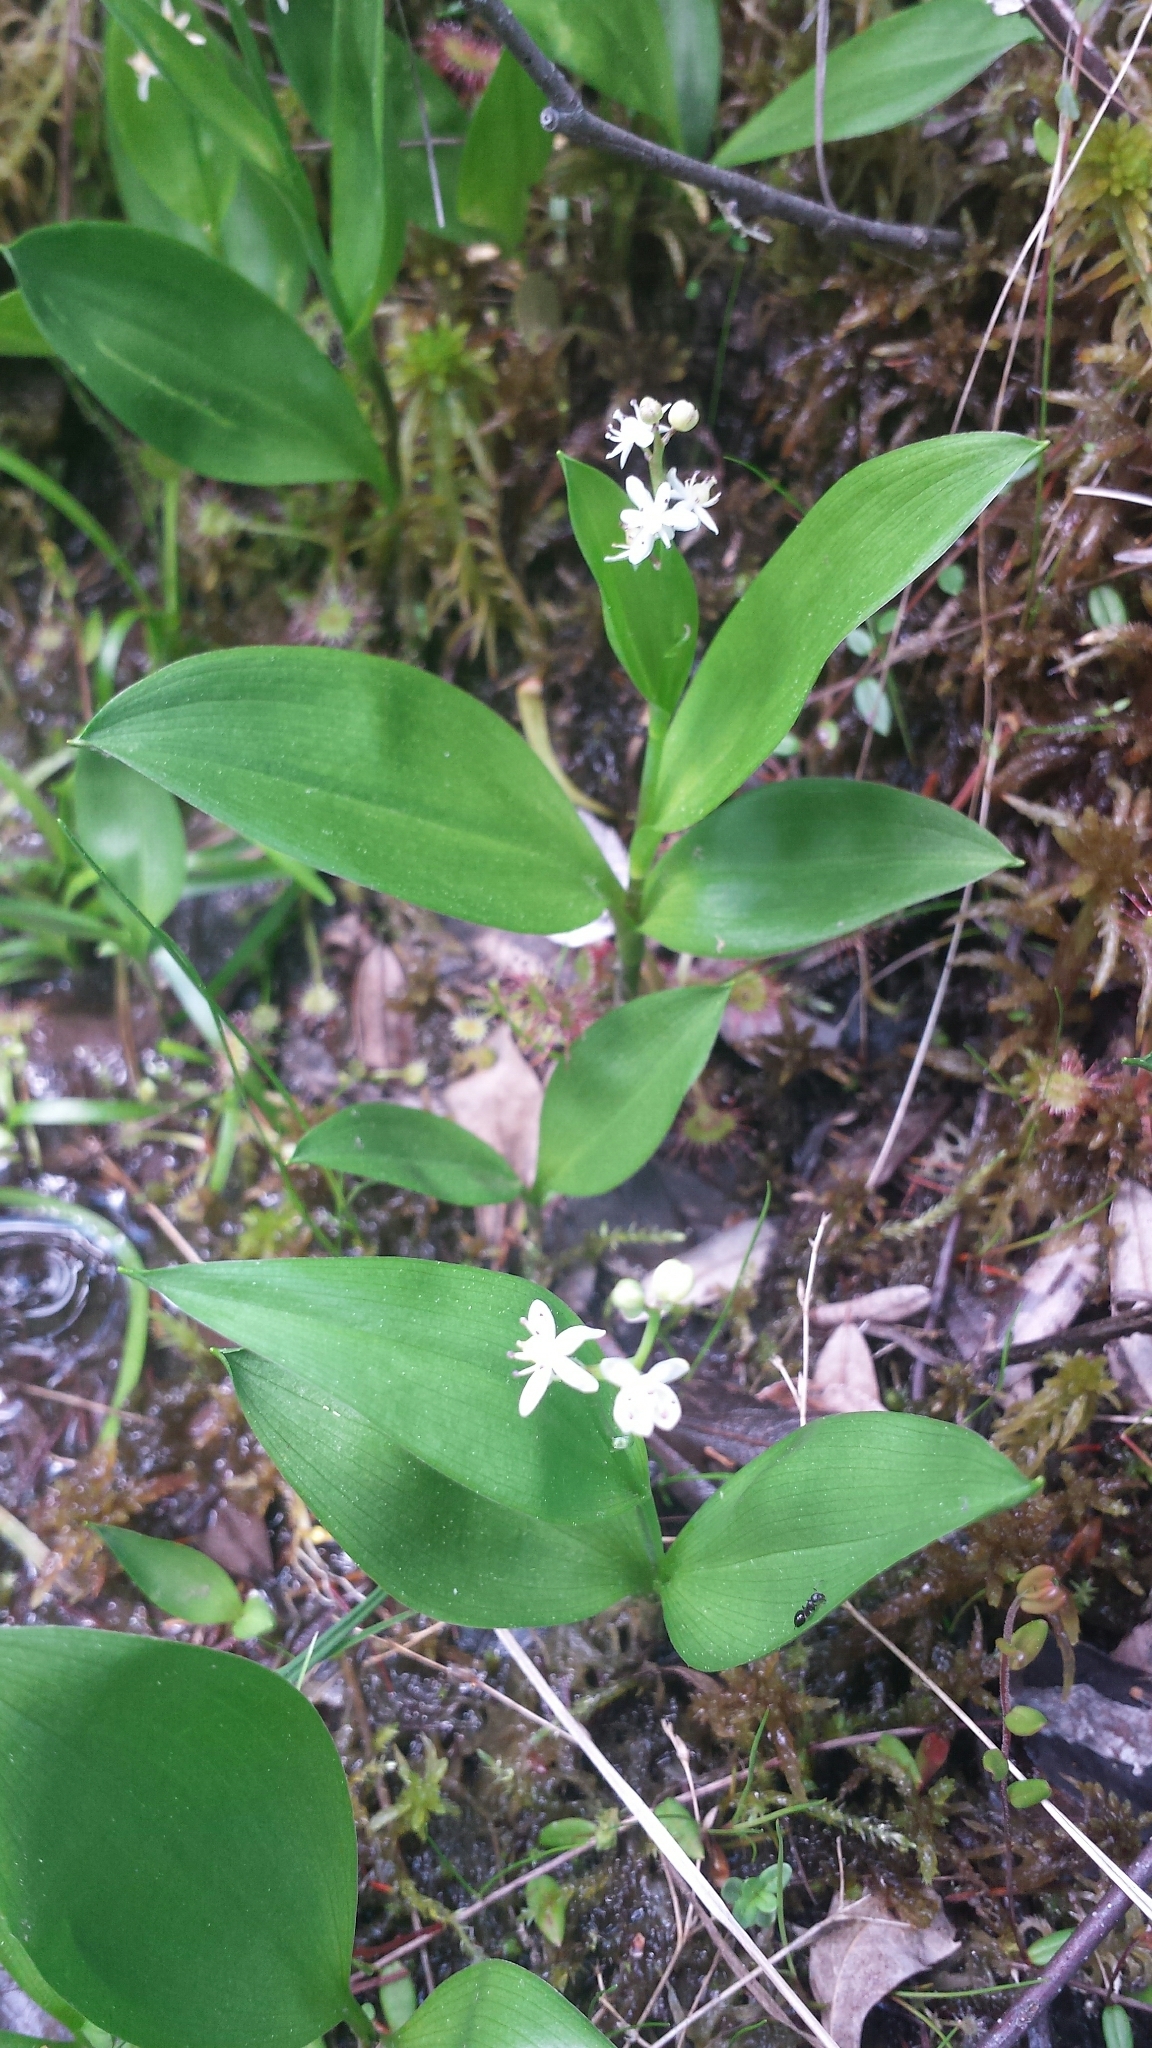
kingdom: Plantae
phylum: Tracheophyta
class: Liliopsida
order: Asparagales
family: Asparagaceae
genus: Maianthemum
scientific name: Maianthemum trifolium
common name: Swamp false solomon's seal
